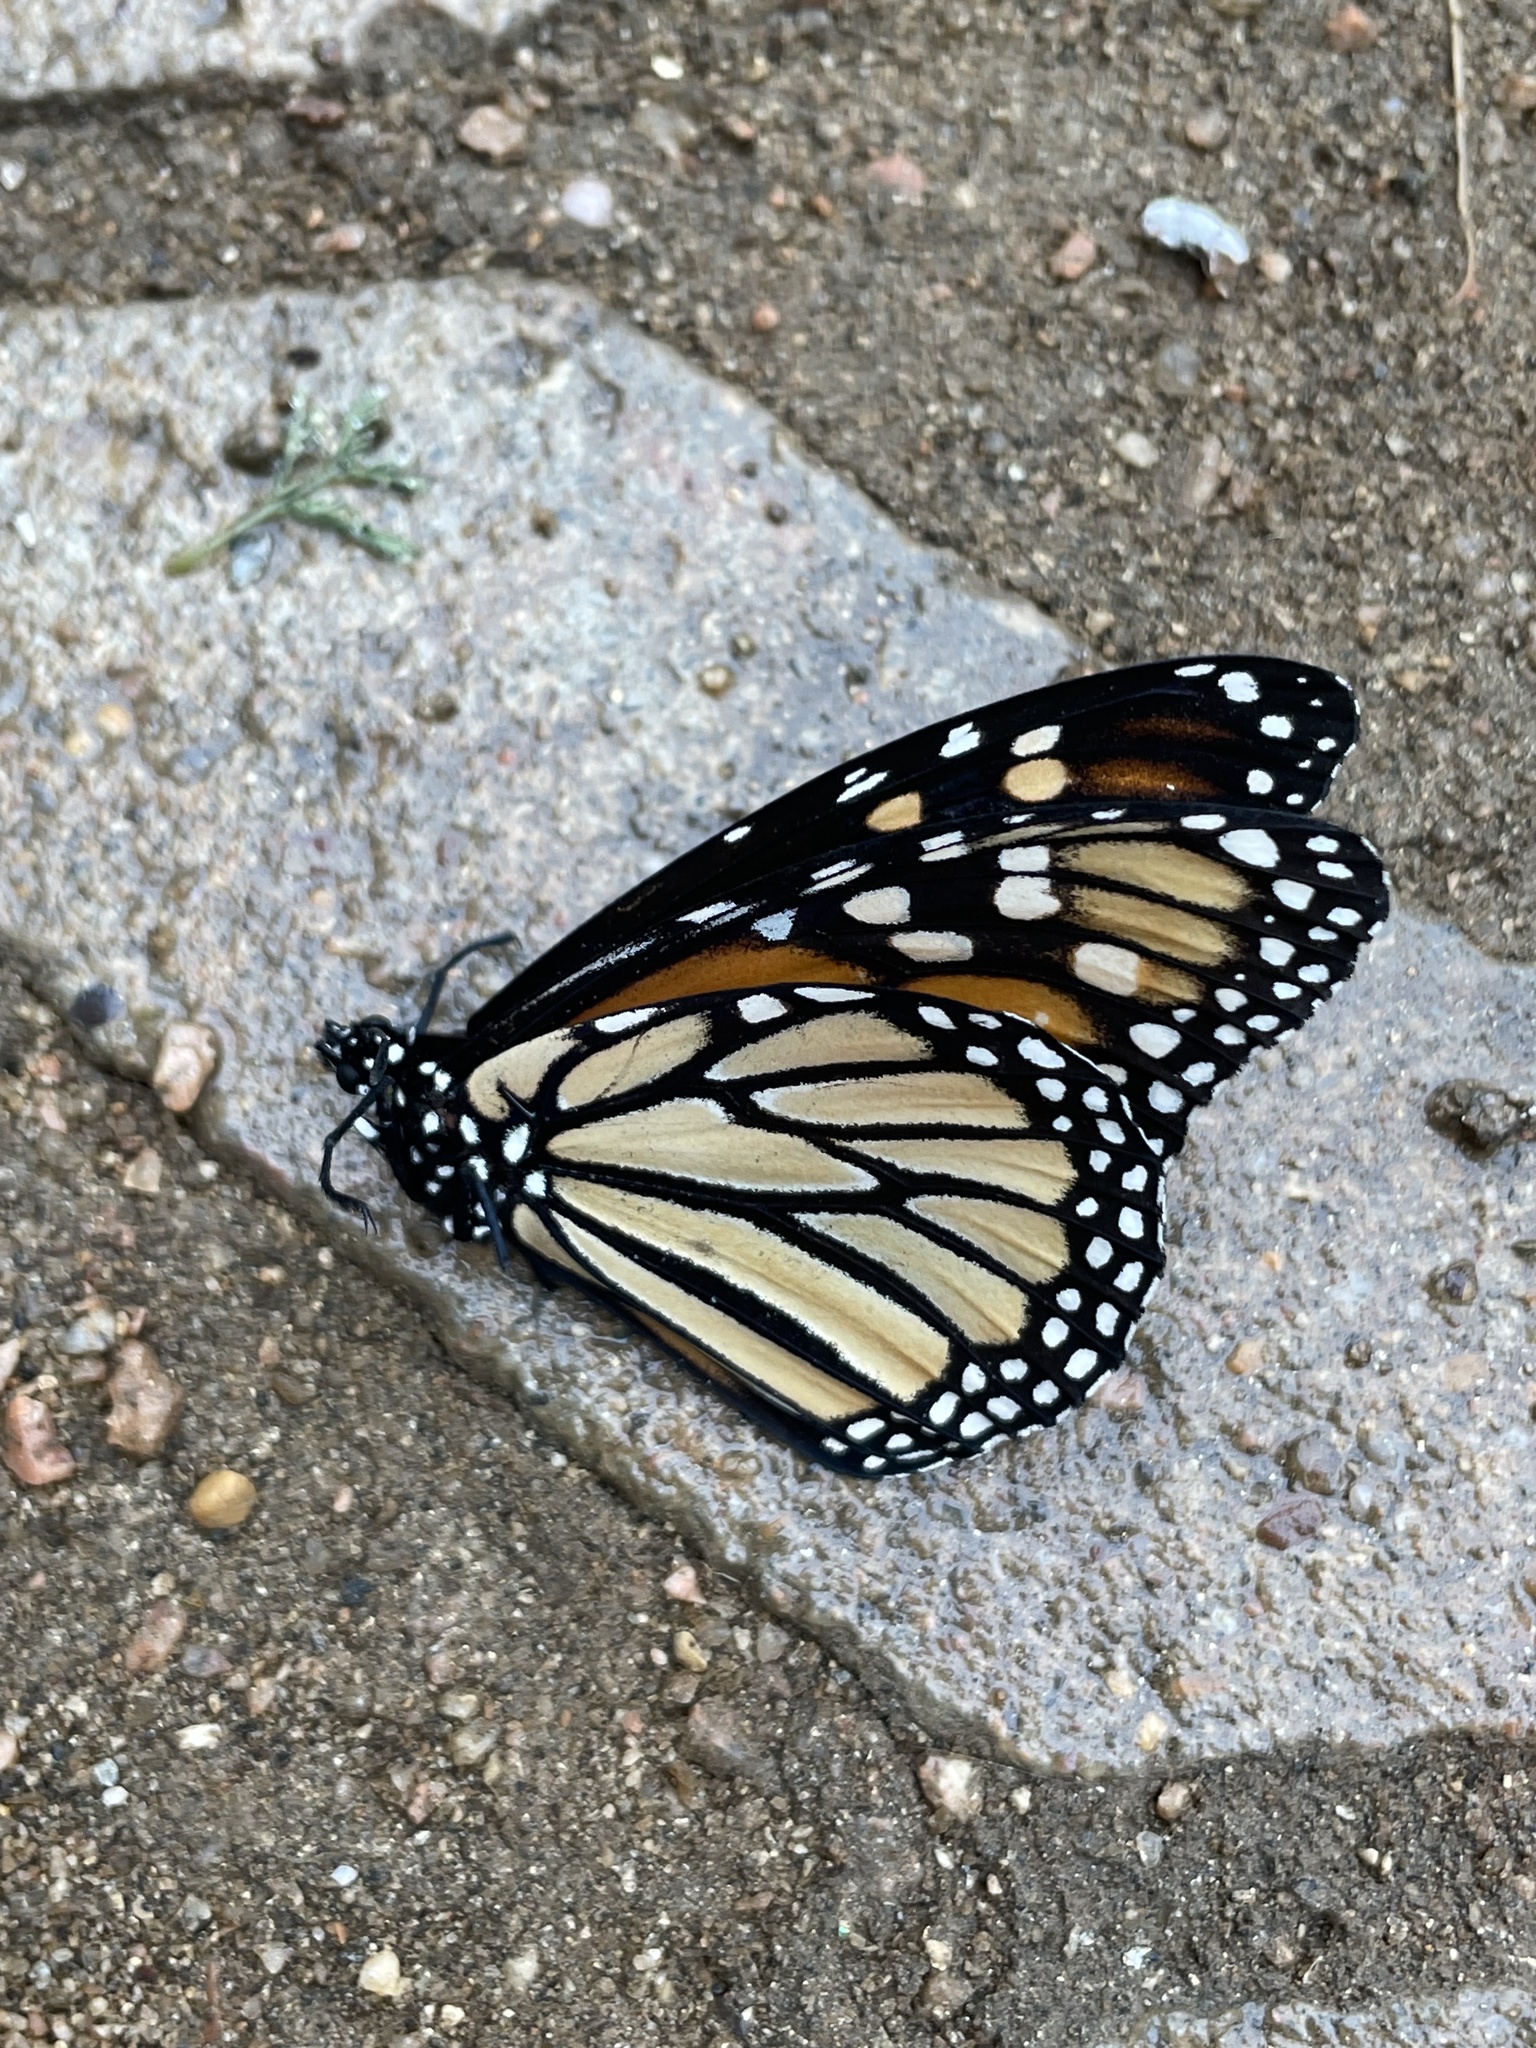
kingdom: Animalia
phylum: Arthropoda
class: Insecta
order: Lepidoptera
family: Nymphalidae
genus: Danaus
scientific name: Danaus plexippus
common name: Monarch
